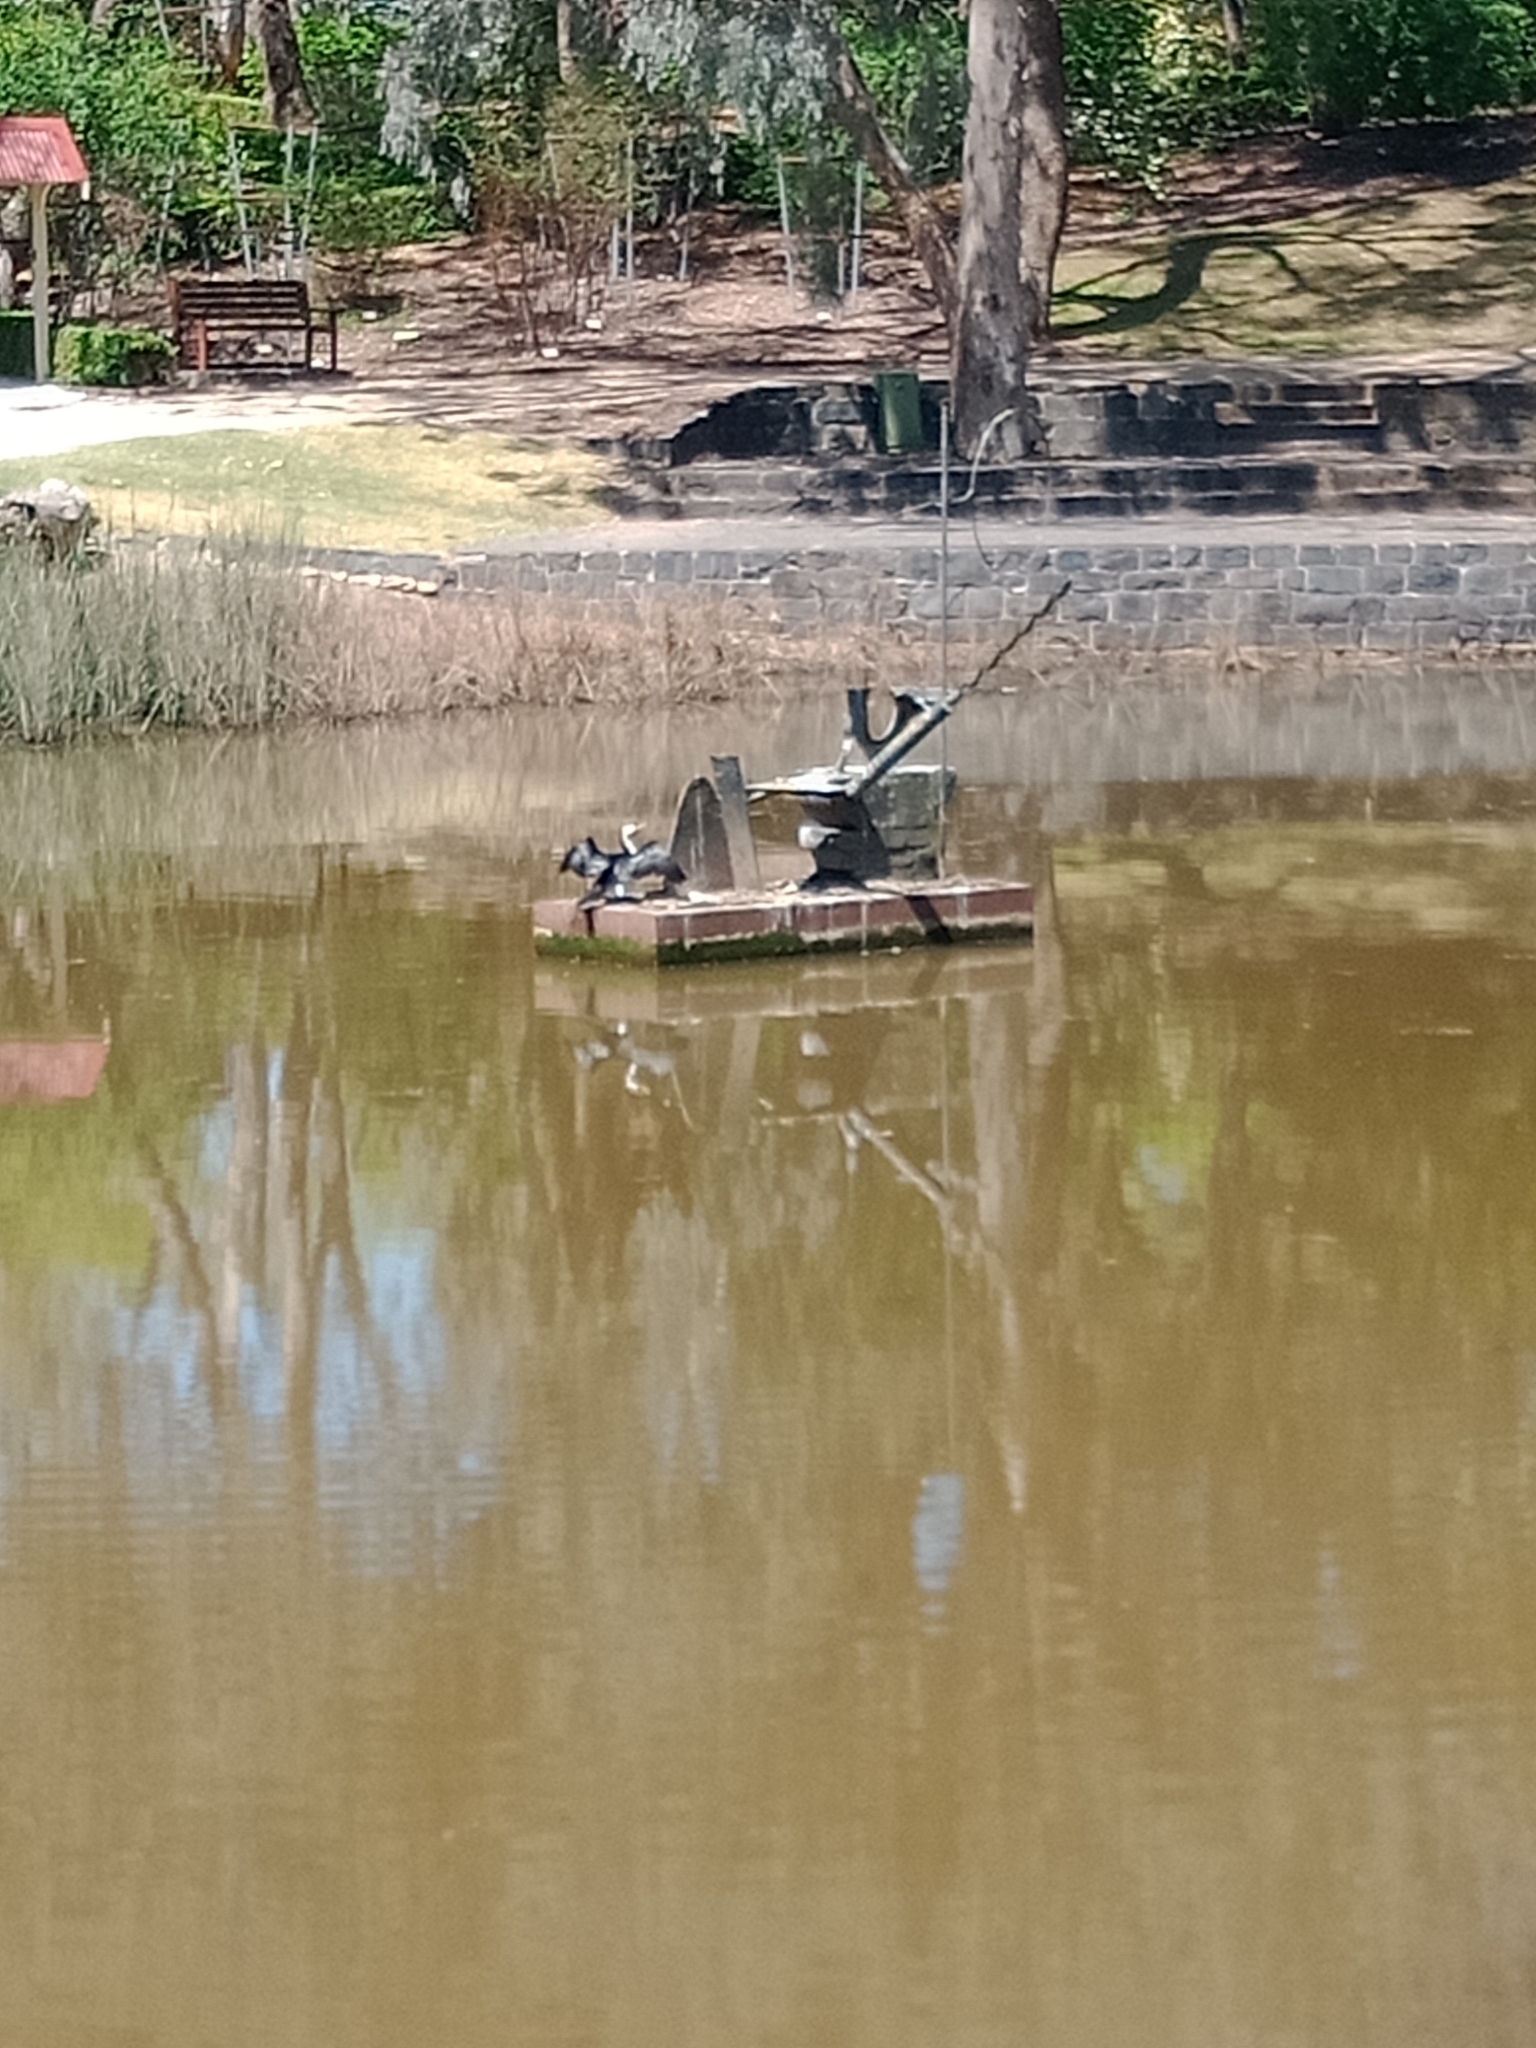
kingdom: Animalia
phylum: Chordata
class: Aves
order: Suliformes
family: Anhingidae
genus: Anhinga
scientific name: Anhinga novaehollandiae
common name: Australasian darter
